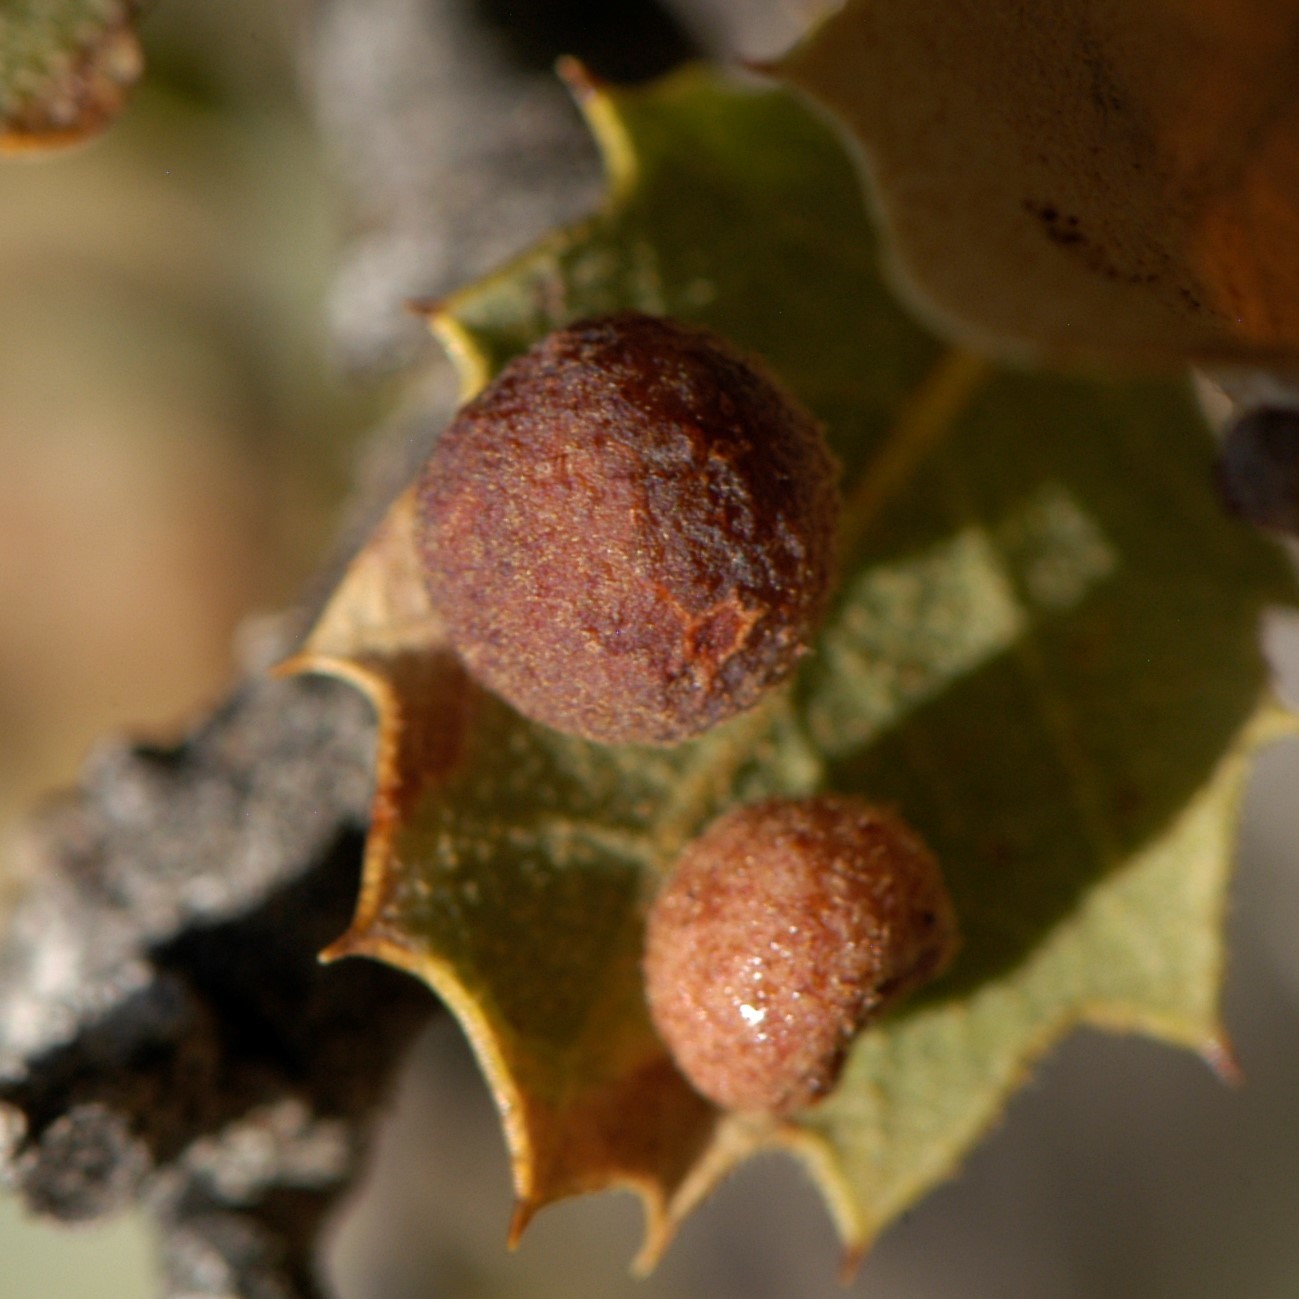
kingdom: Animalia
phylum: Arthropoda
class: Insecta
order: Hymenoptera
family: Cynipidae
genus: Atrusca
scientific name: Atrusca
